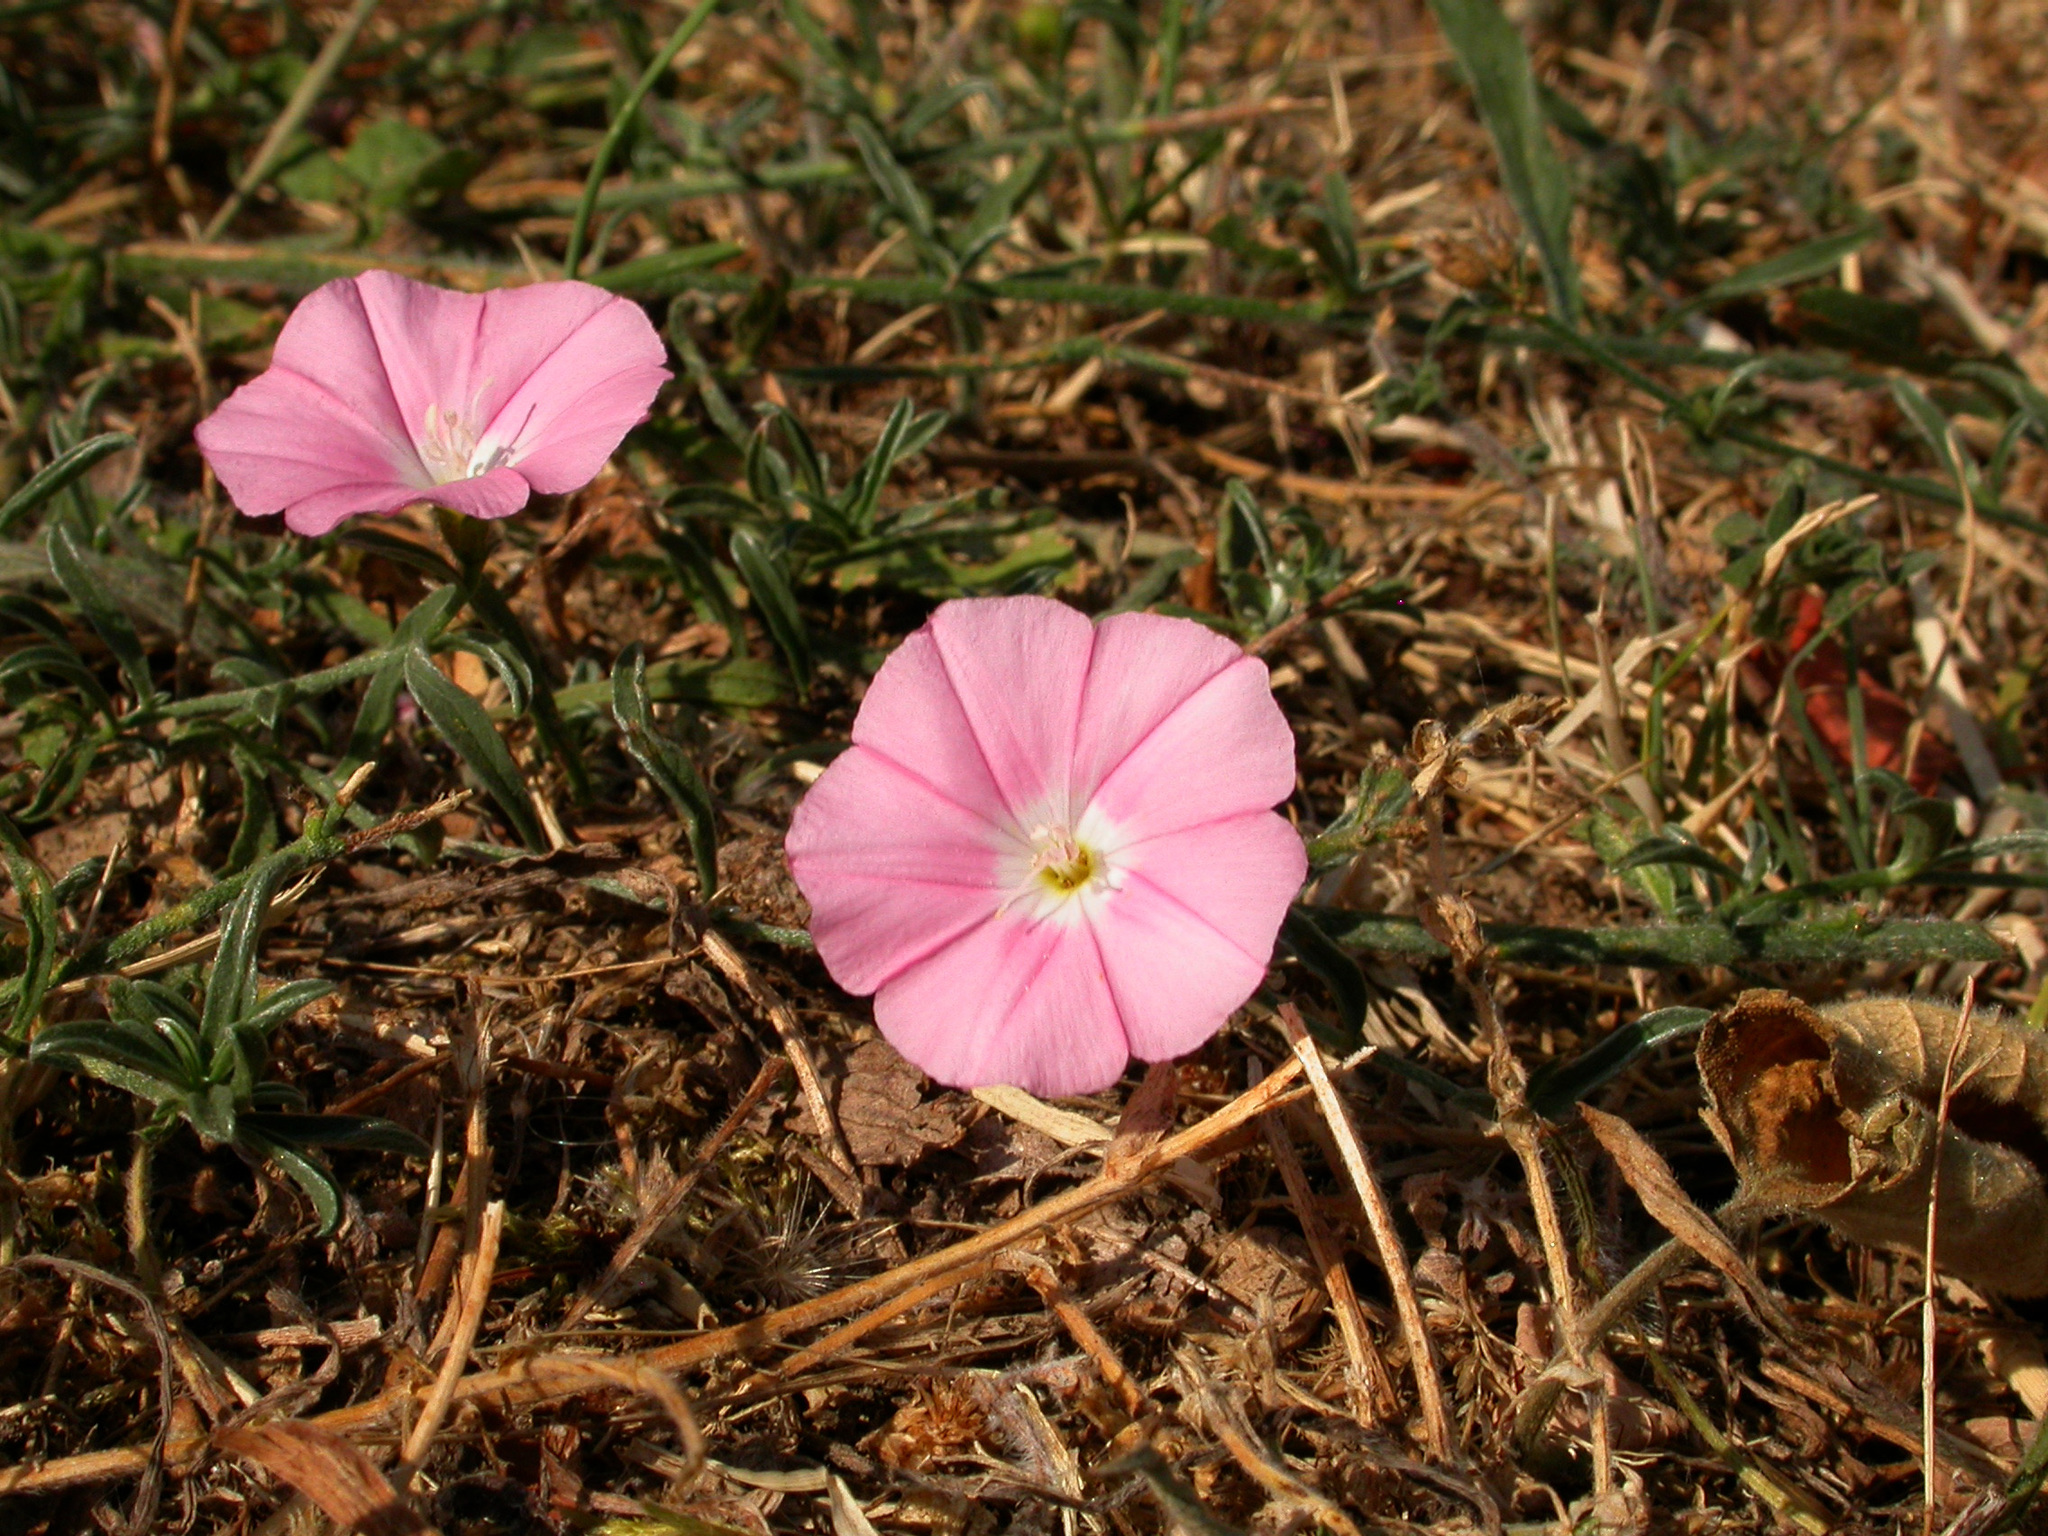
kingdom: Plantae
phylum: Tracheophyta
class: Magnoliopsida
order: Solanales
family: Convolvulaceae
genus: Convolvulus
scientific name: Convolvulus cantabrica
